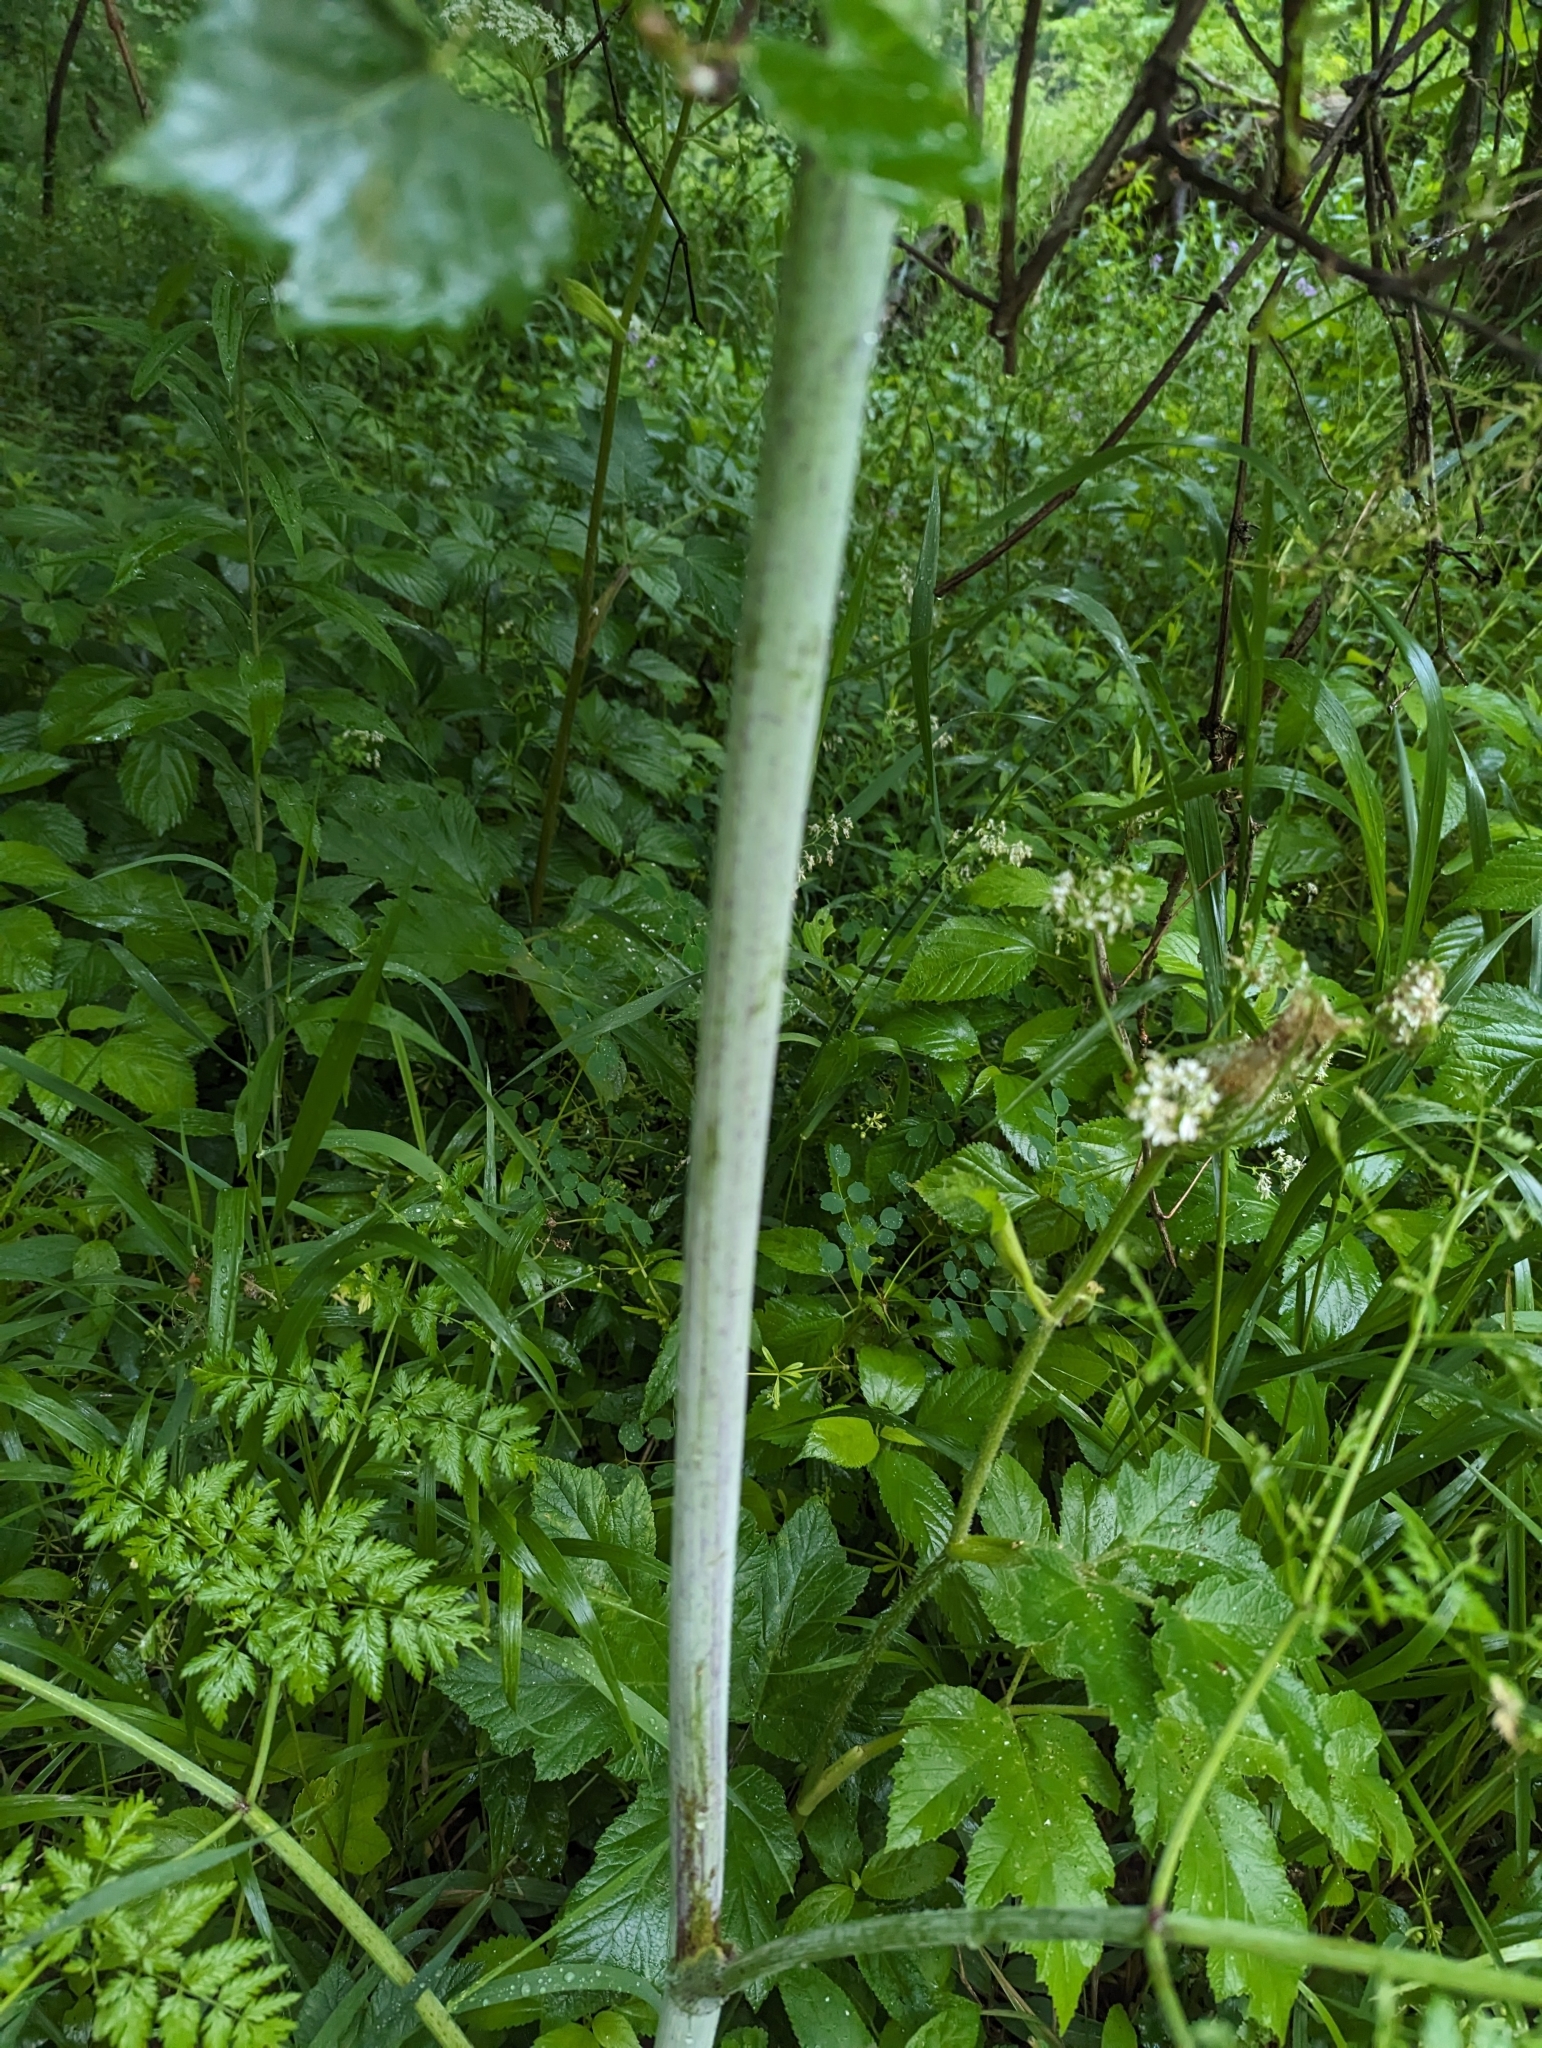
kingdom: Plantae
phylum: Tracheophyta
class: Magnoliopsida
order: Apiales
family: Apiaceae
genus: Conium
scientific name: Conium maculatum
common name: Hemlock
